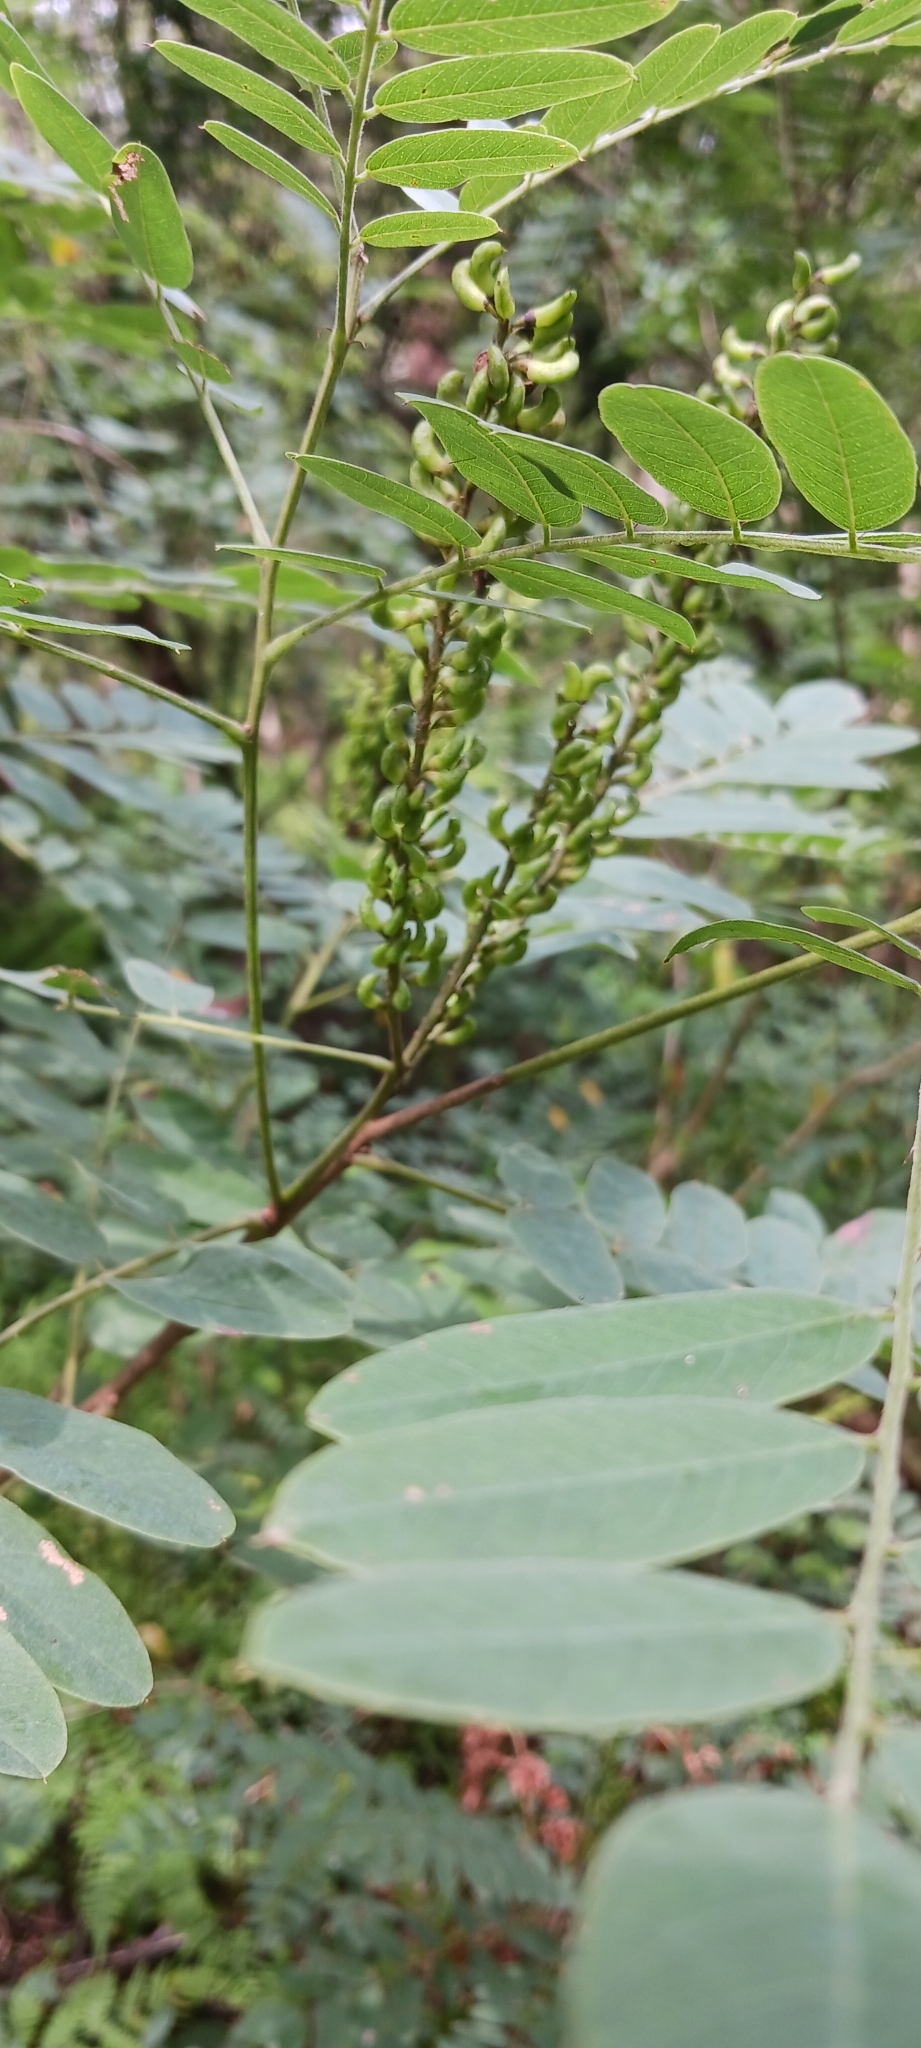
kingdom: Plantae
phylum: Tracheophyta
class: Magnoliopsida
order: Fabales
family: Fabaceae
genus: Amorpha
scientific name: Amorpha fruticosa
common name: False indigo
